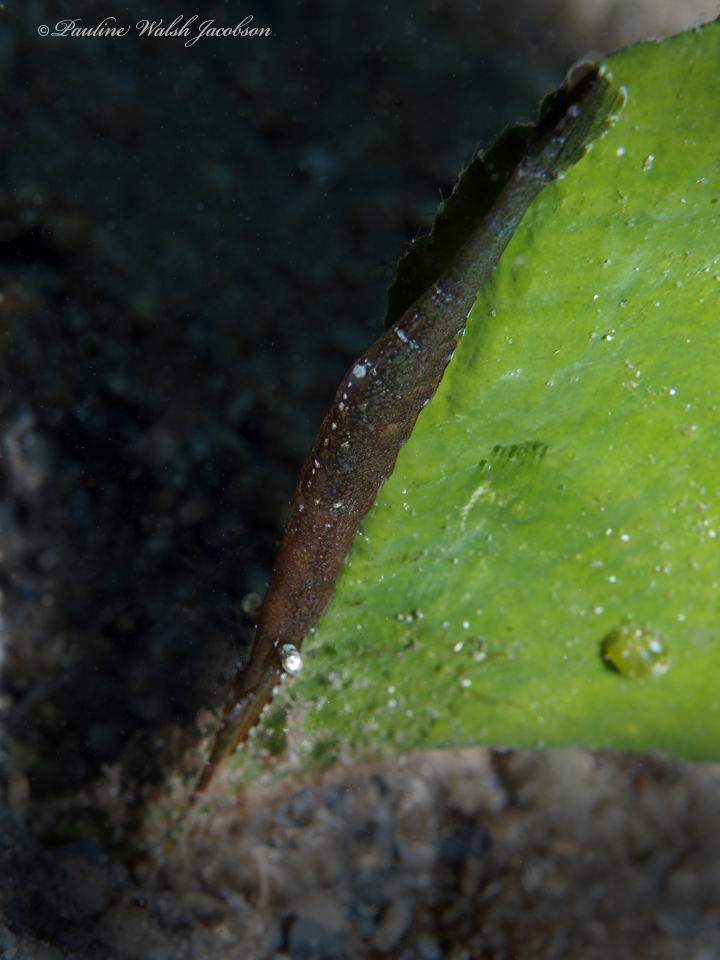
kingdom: Animalia
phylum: Arthropoda
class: Malacostraca
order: Decapoda
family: Hippolytidae
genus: Tozeuma
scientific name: Tozeuma carolinense
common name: Arrow shrimp
